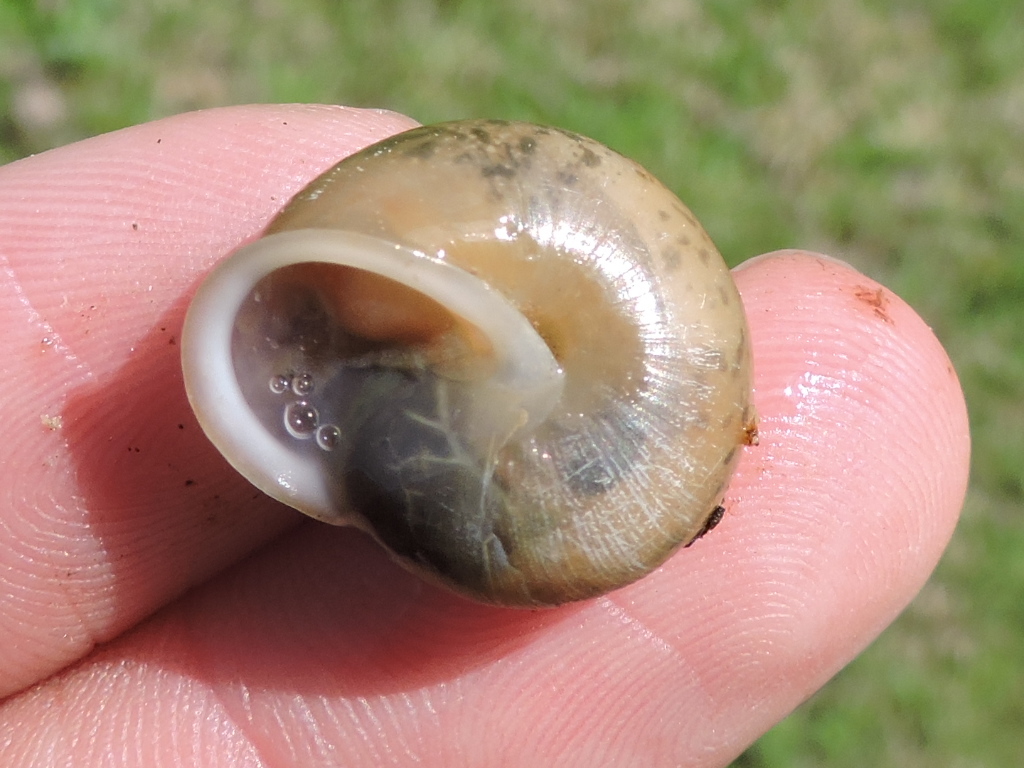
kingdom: Animalia
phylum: Mollusca
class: Gastropoda
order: Stylommatophora
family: Polygyridae
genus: Patera
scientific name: Patera roemeri
